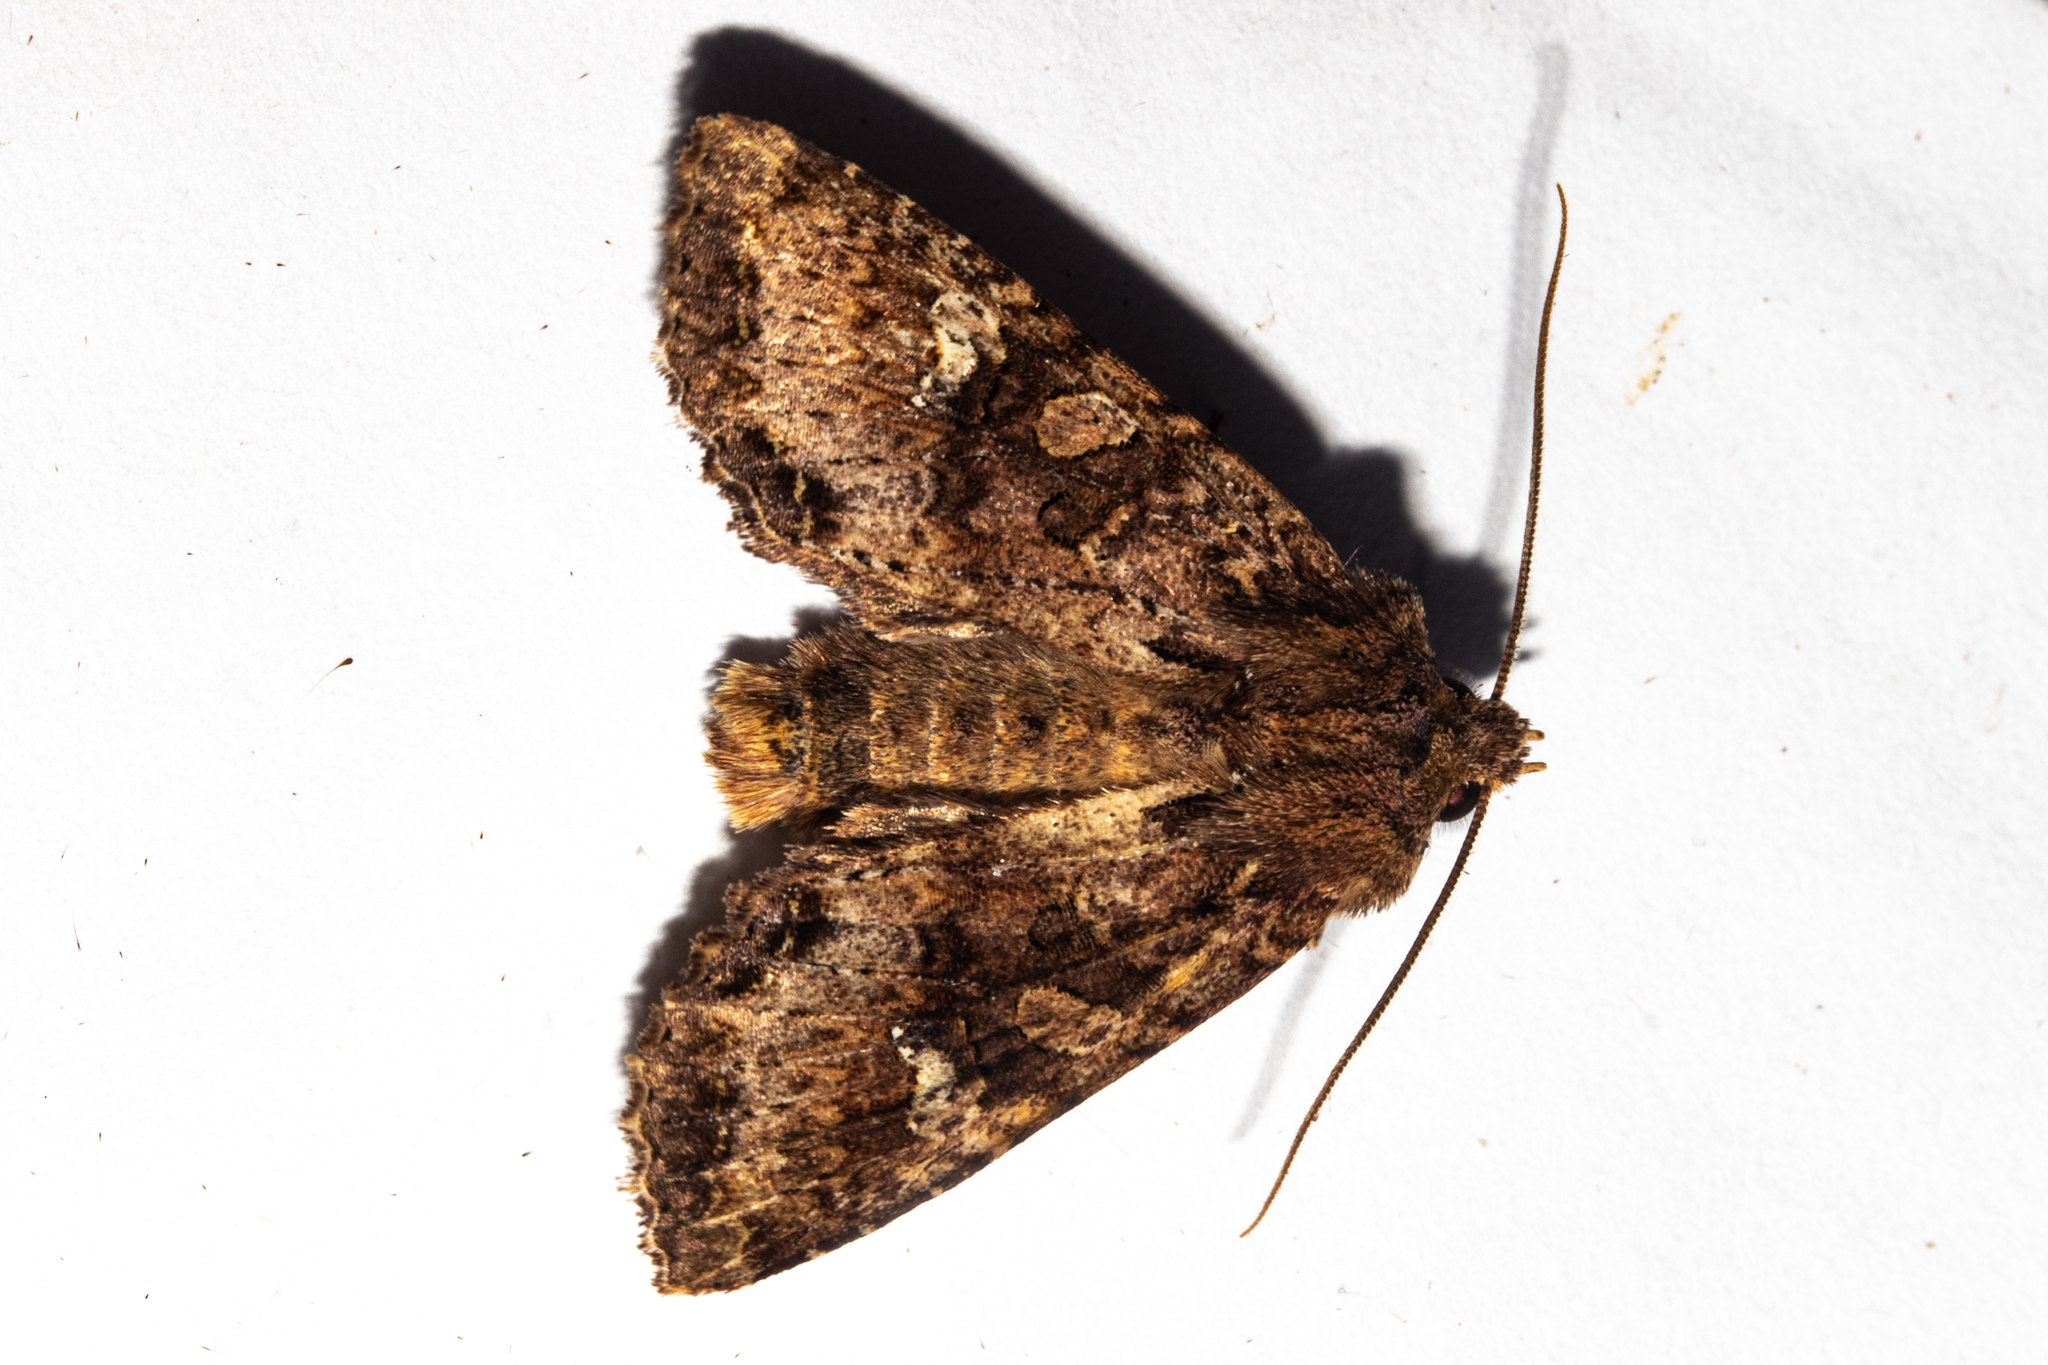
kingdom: Animalia
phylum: Arthropoda
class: Insecta
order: Lepidoptera
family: Noctuidae
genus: Meterana
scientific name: Meterana
